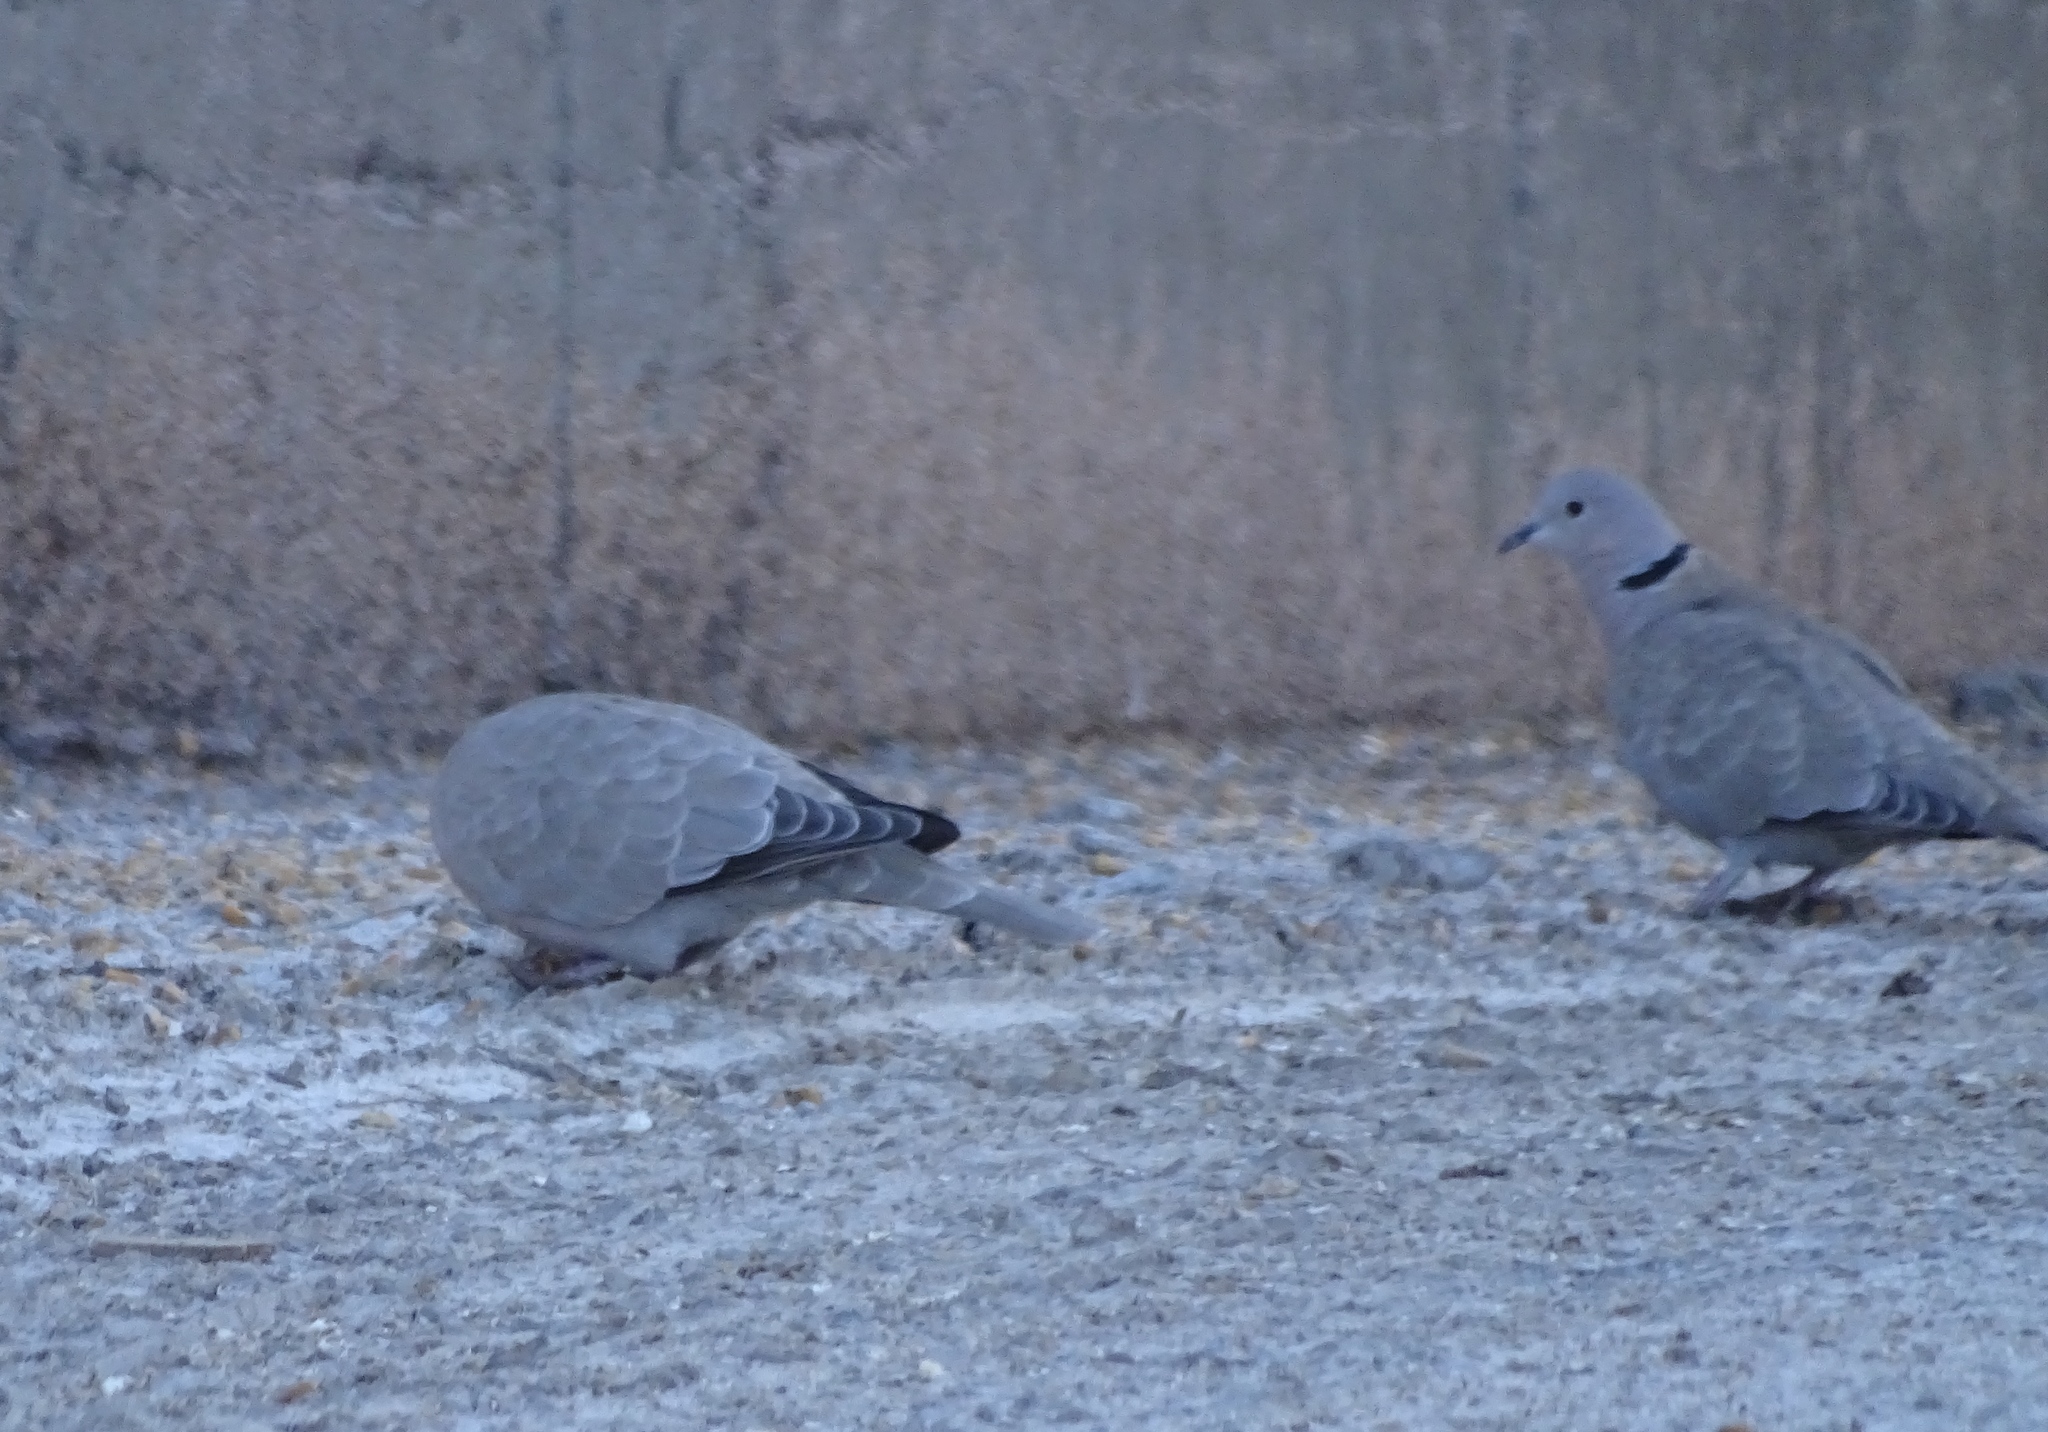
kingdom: Animalia
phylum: Chordata
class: Aves
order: Columbiformes
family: Columbidae
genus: Streptopelia
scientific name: Streptopelia decaocto
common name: Eurasian collared dove
